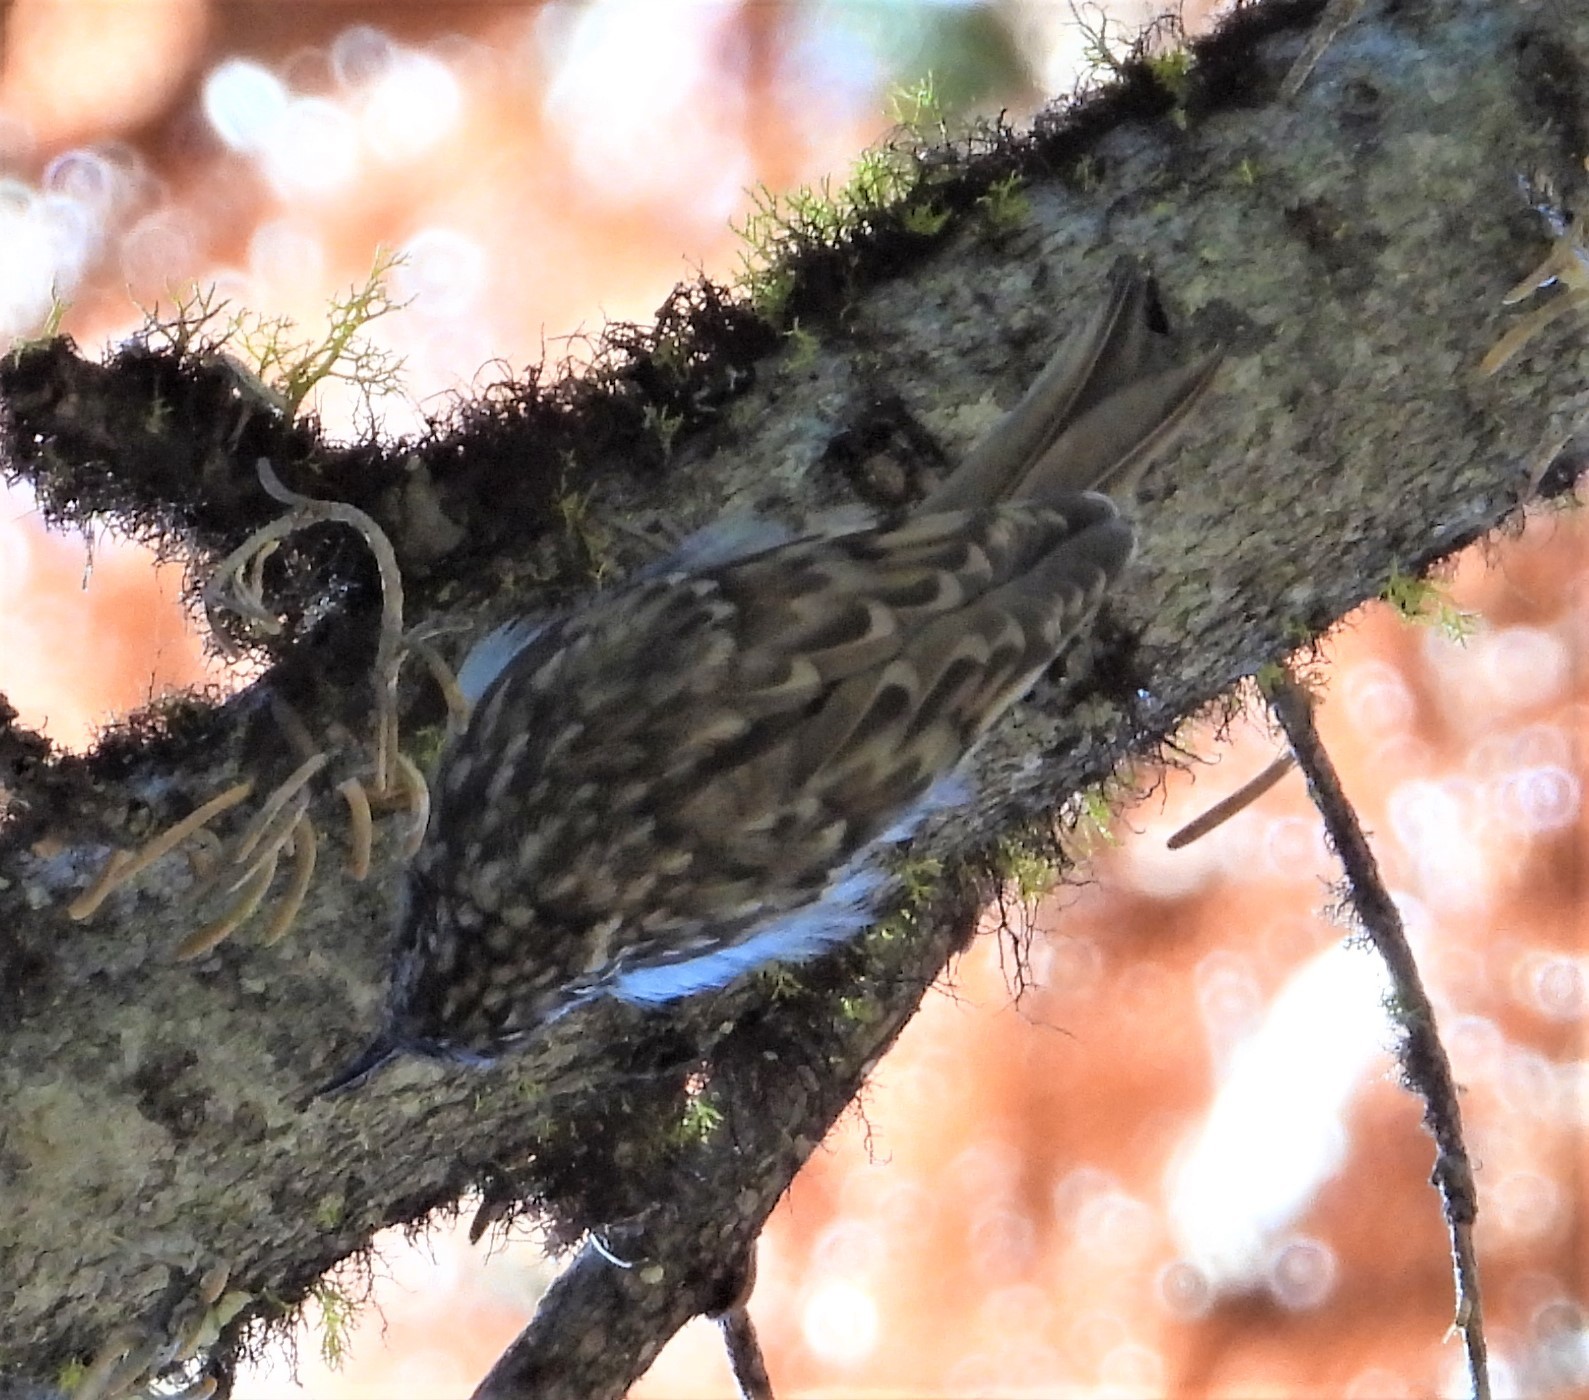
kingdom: Animalia
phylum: Chordata
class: Aves
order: Passeriformes
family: Certhiidae
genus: Certhia
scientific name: Certhia americana
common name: Brown creeper
